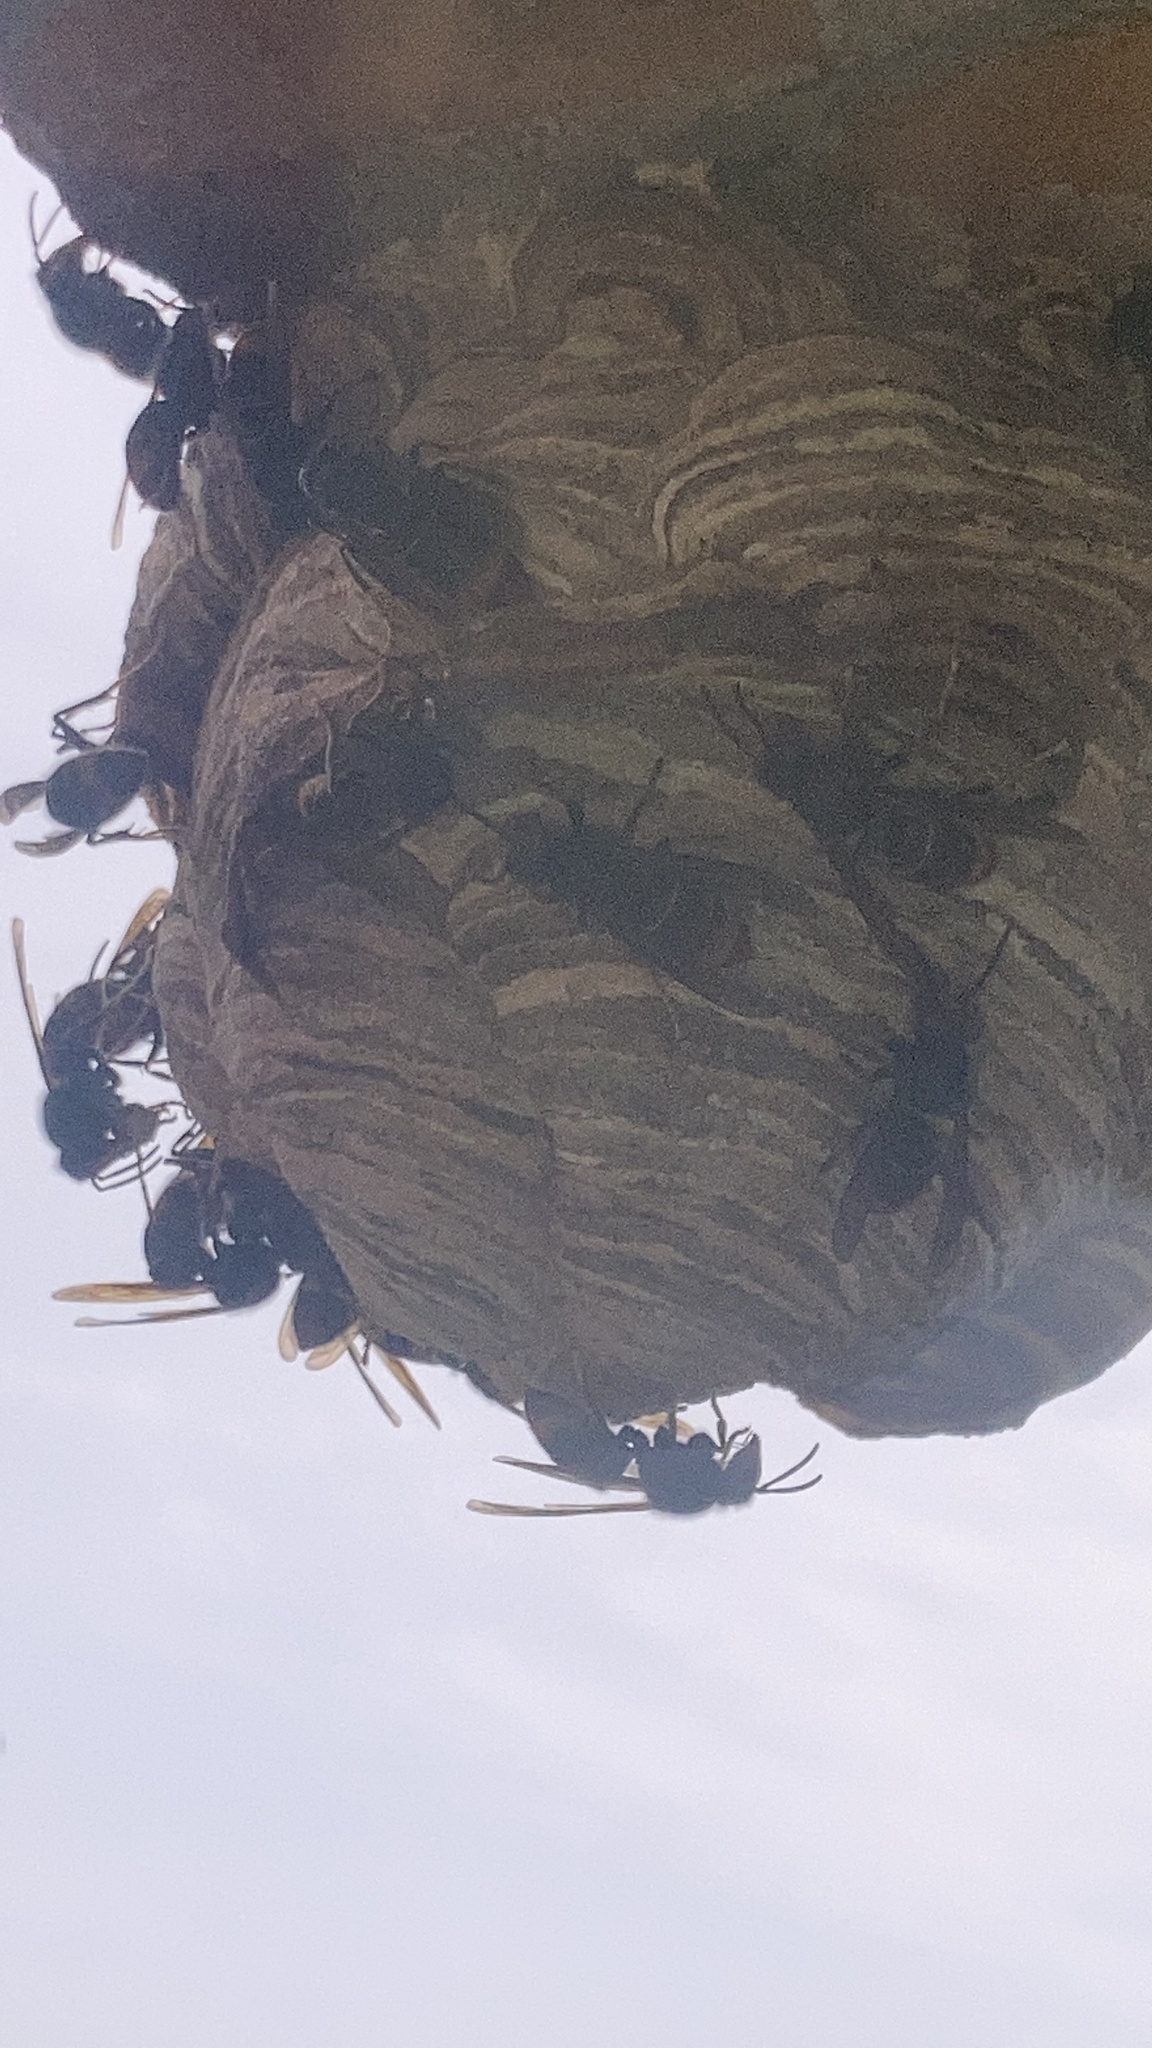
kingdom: Animalia
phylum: Arthropoda
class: Insecta
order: Hymenoptera
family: Vespidae
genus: Vespa
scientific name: Vespa velutina
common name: Asian hornet
